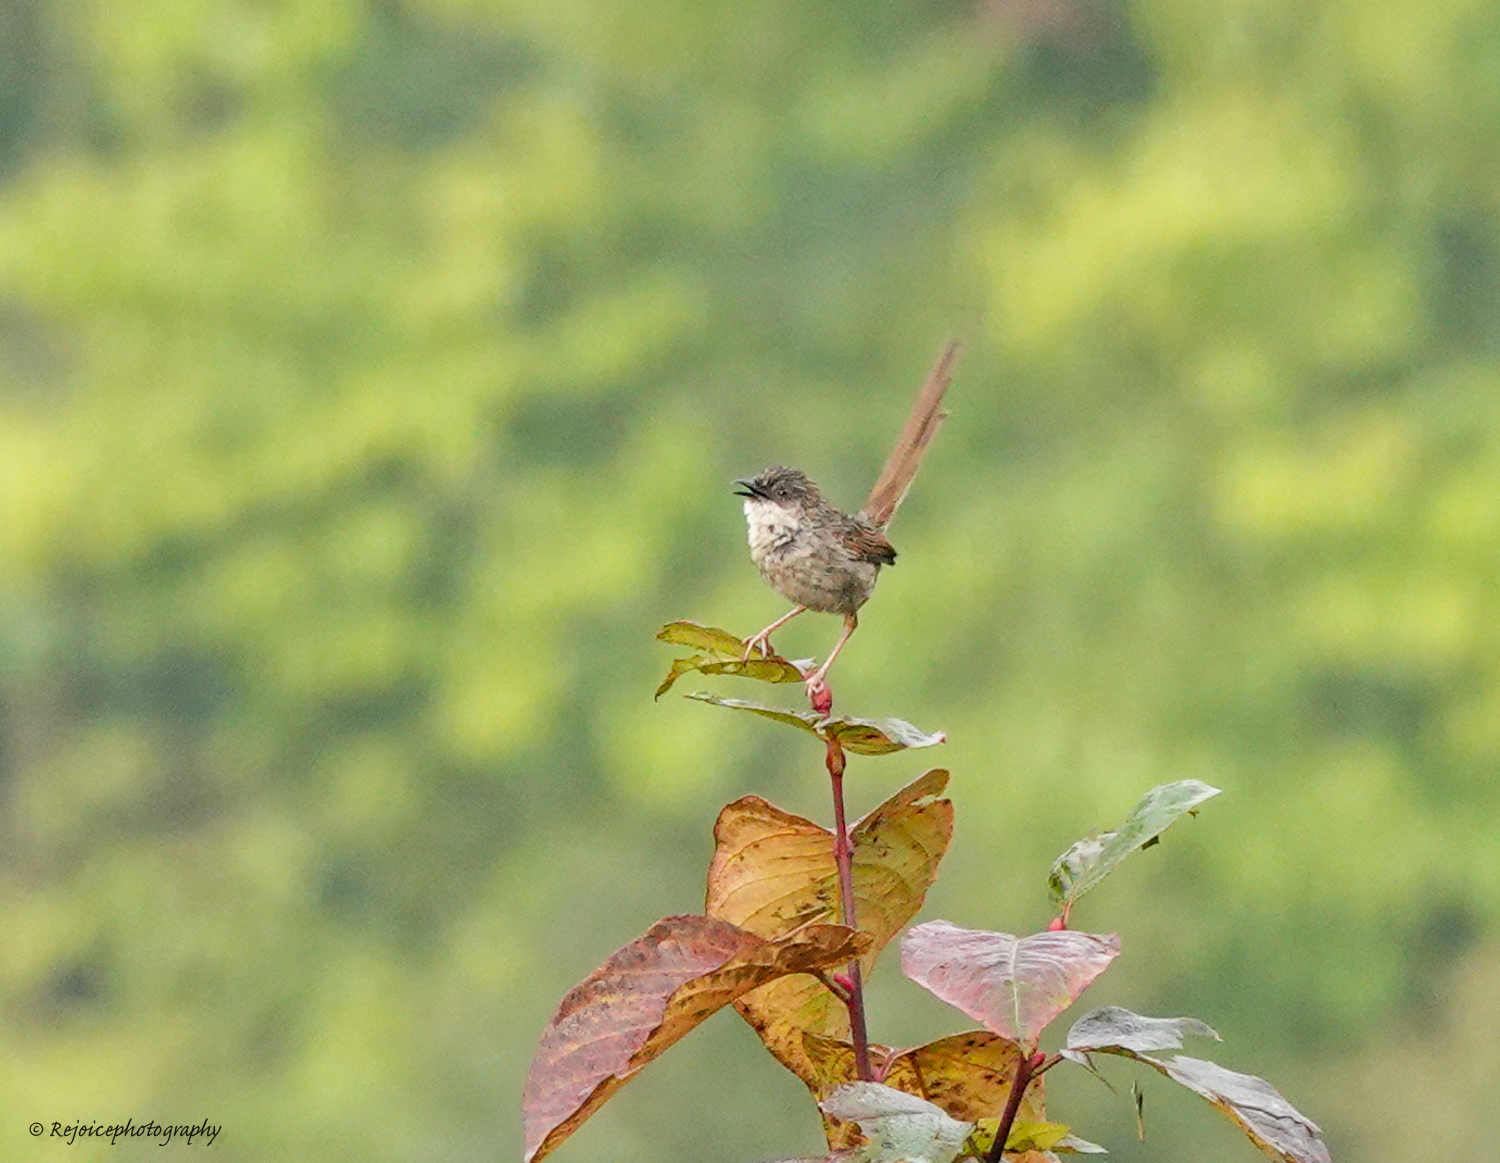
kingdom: Animalia
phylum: Chordata
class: Aves
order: Passeriformes
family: Cisticolidae
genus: Prinia
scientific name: Prinia crinigera
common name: Striated prinia
